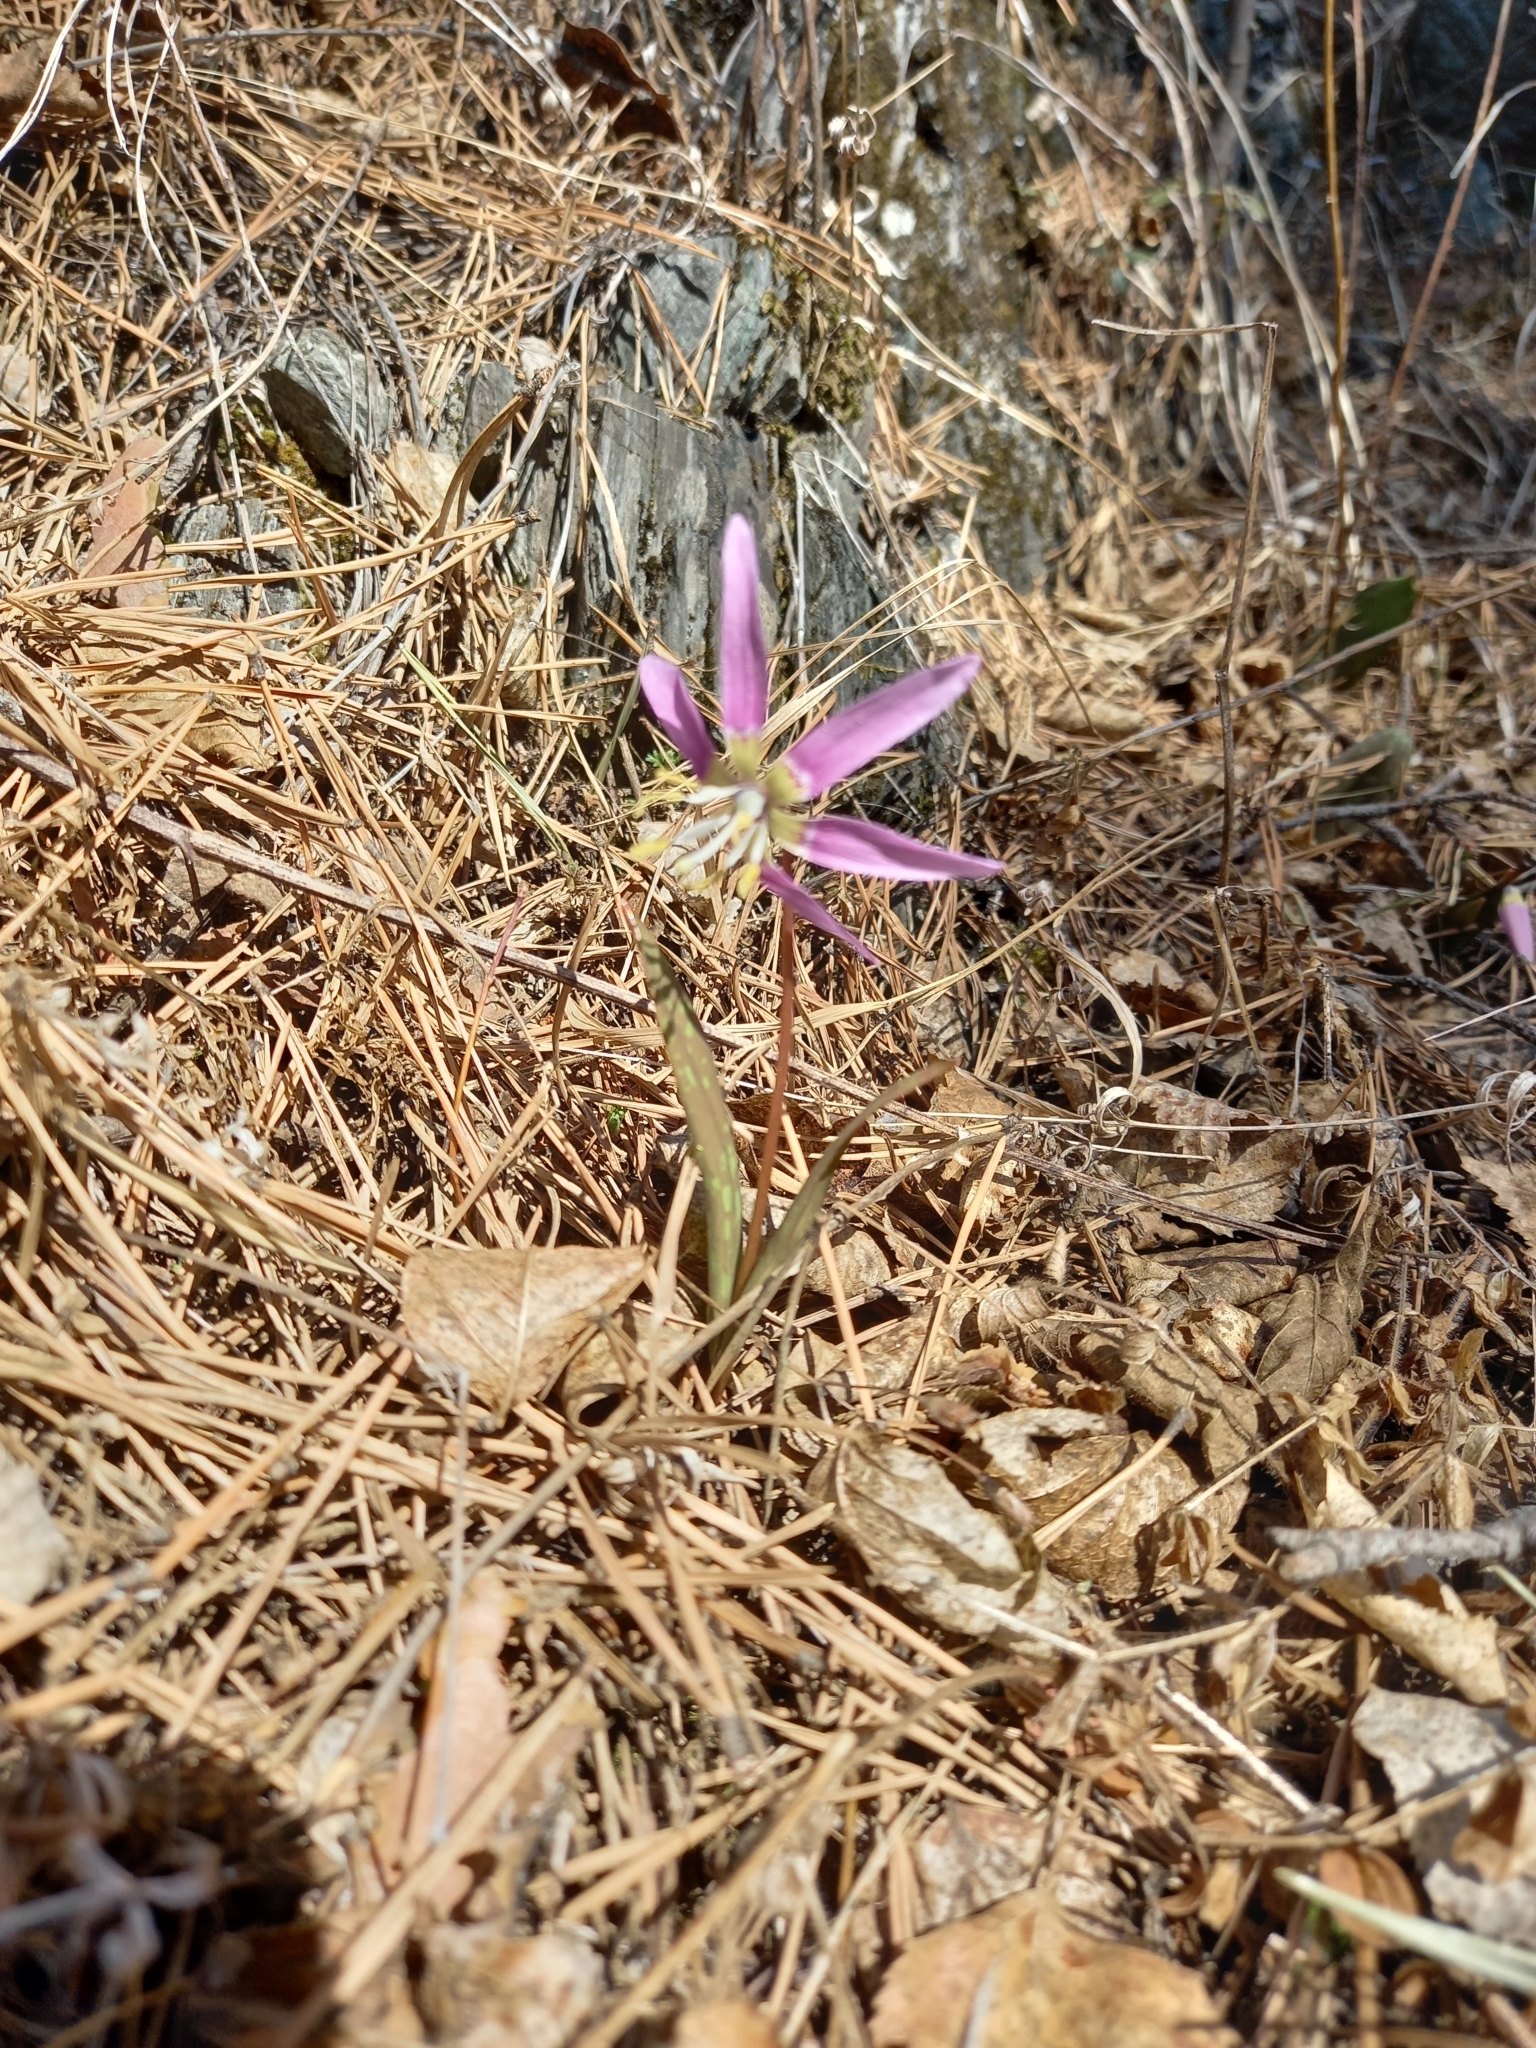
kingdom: Plantae
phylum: Tracheophyta
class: Liliopsida
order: Liliales
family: Liliaceae
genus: Erythronium
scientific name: Erythronium sibiricum
